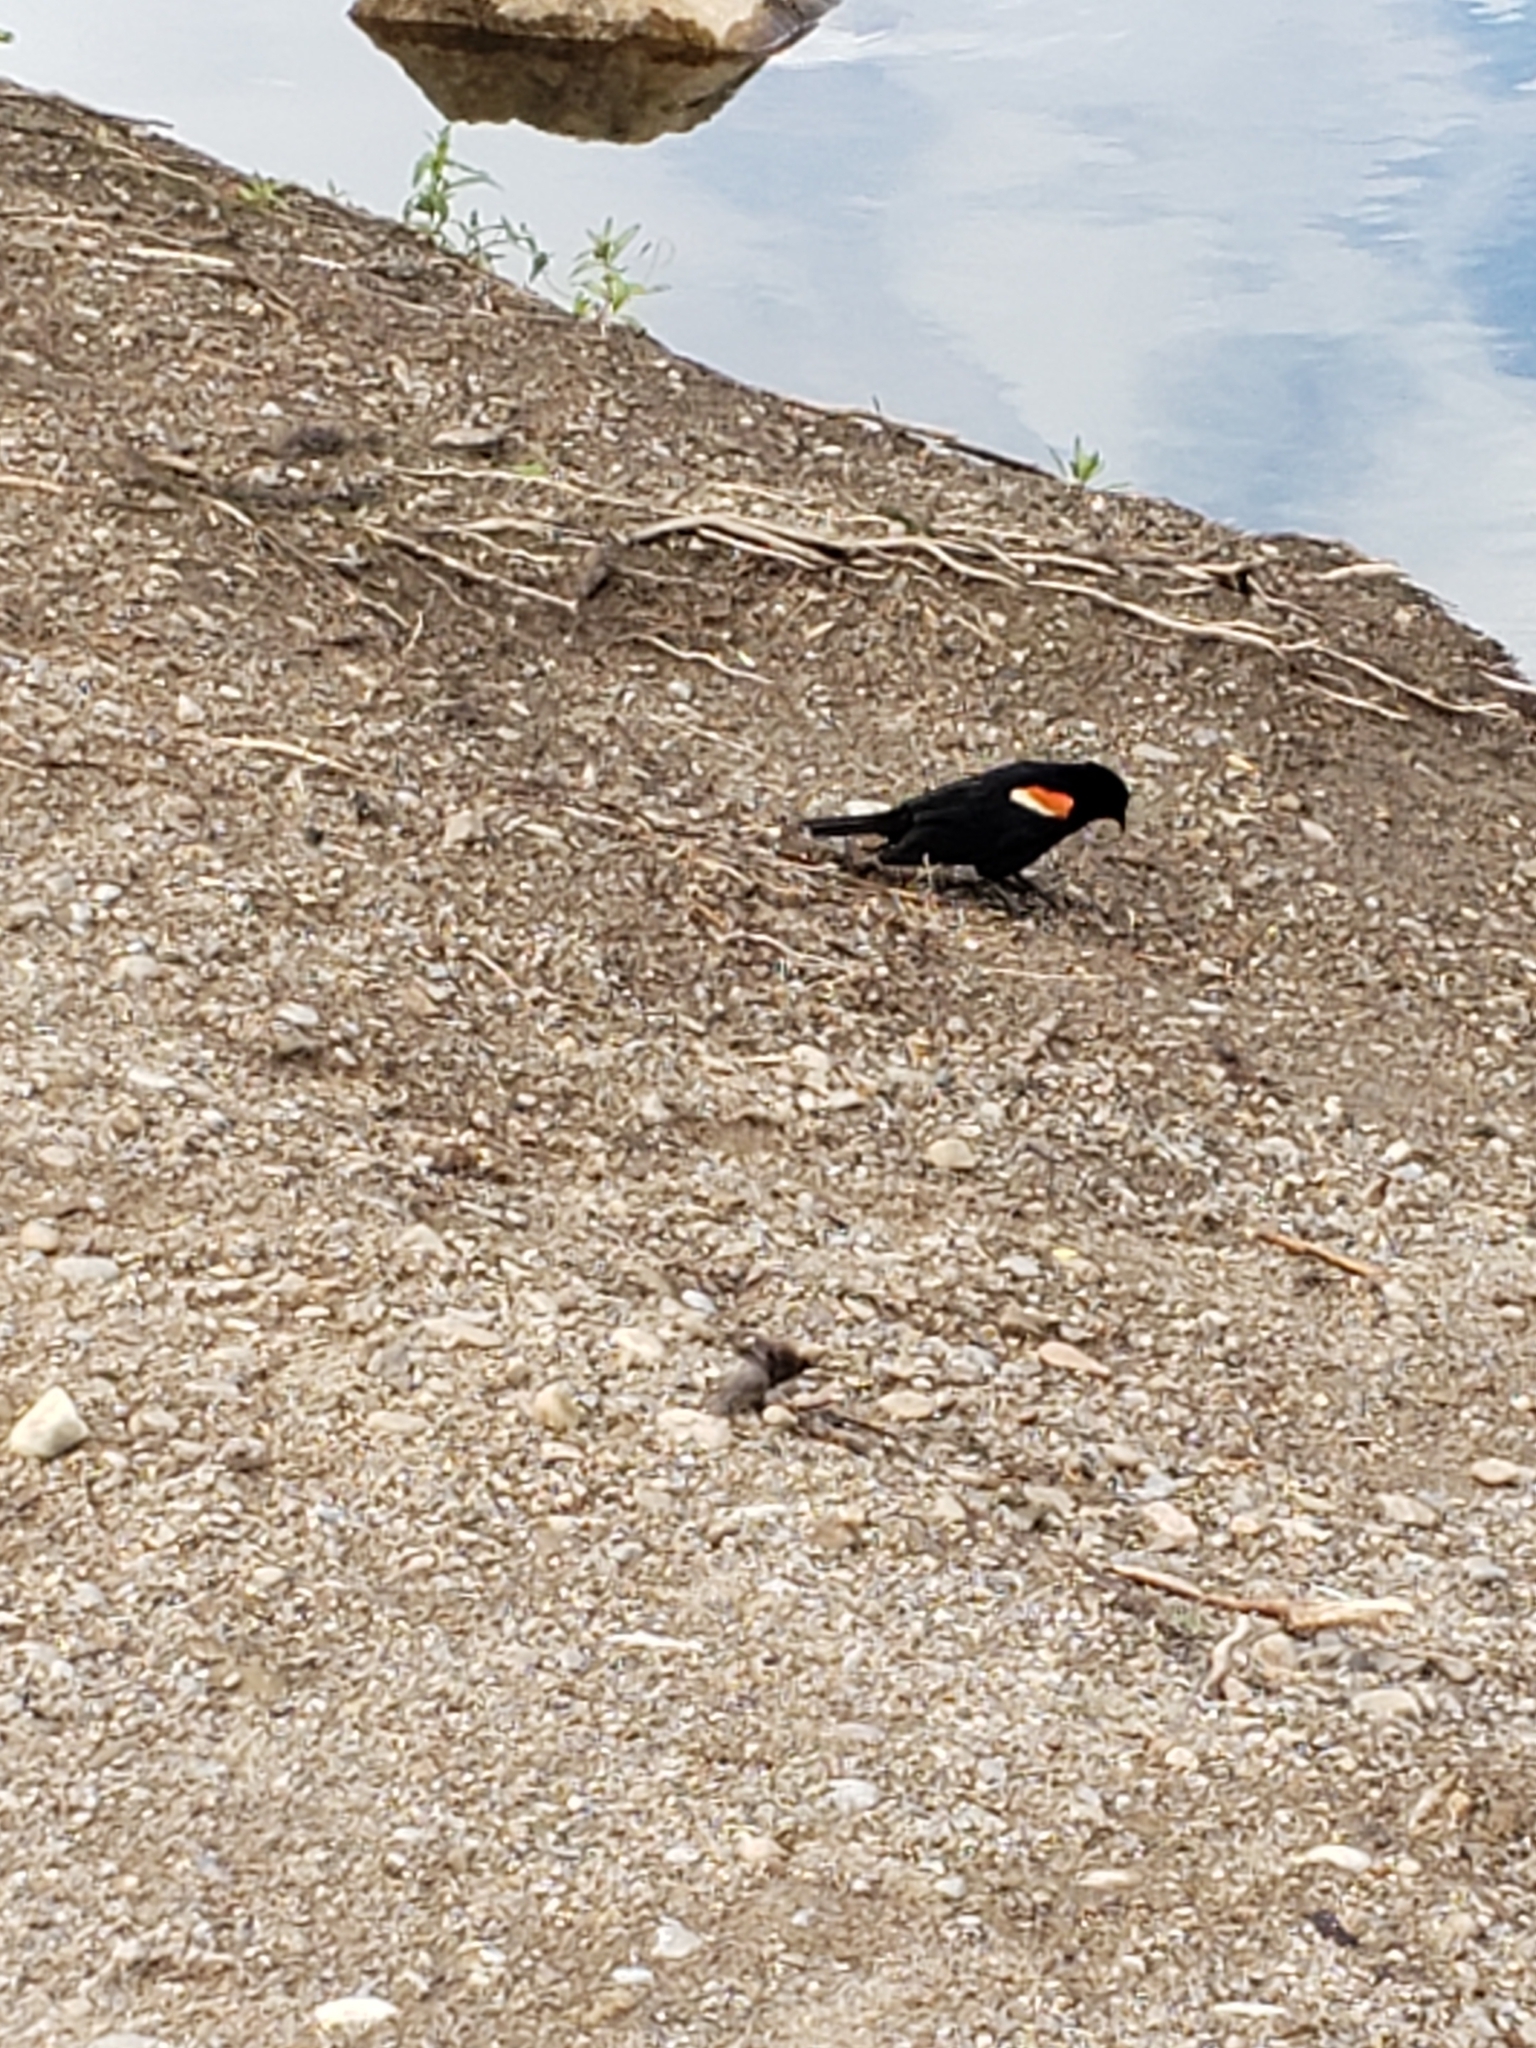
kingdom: Animalia
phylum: Chordata
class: Aves
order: Passeriformes
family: Icteridae
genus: Agelaius
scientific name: Agelaius phoeniceus
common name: Red-winged blackbird
